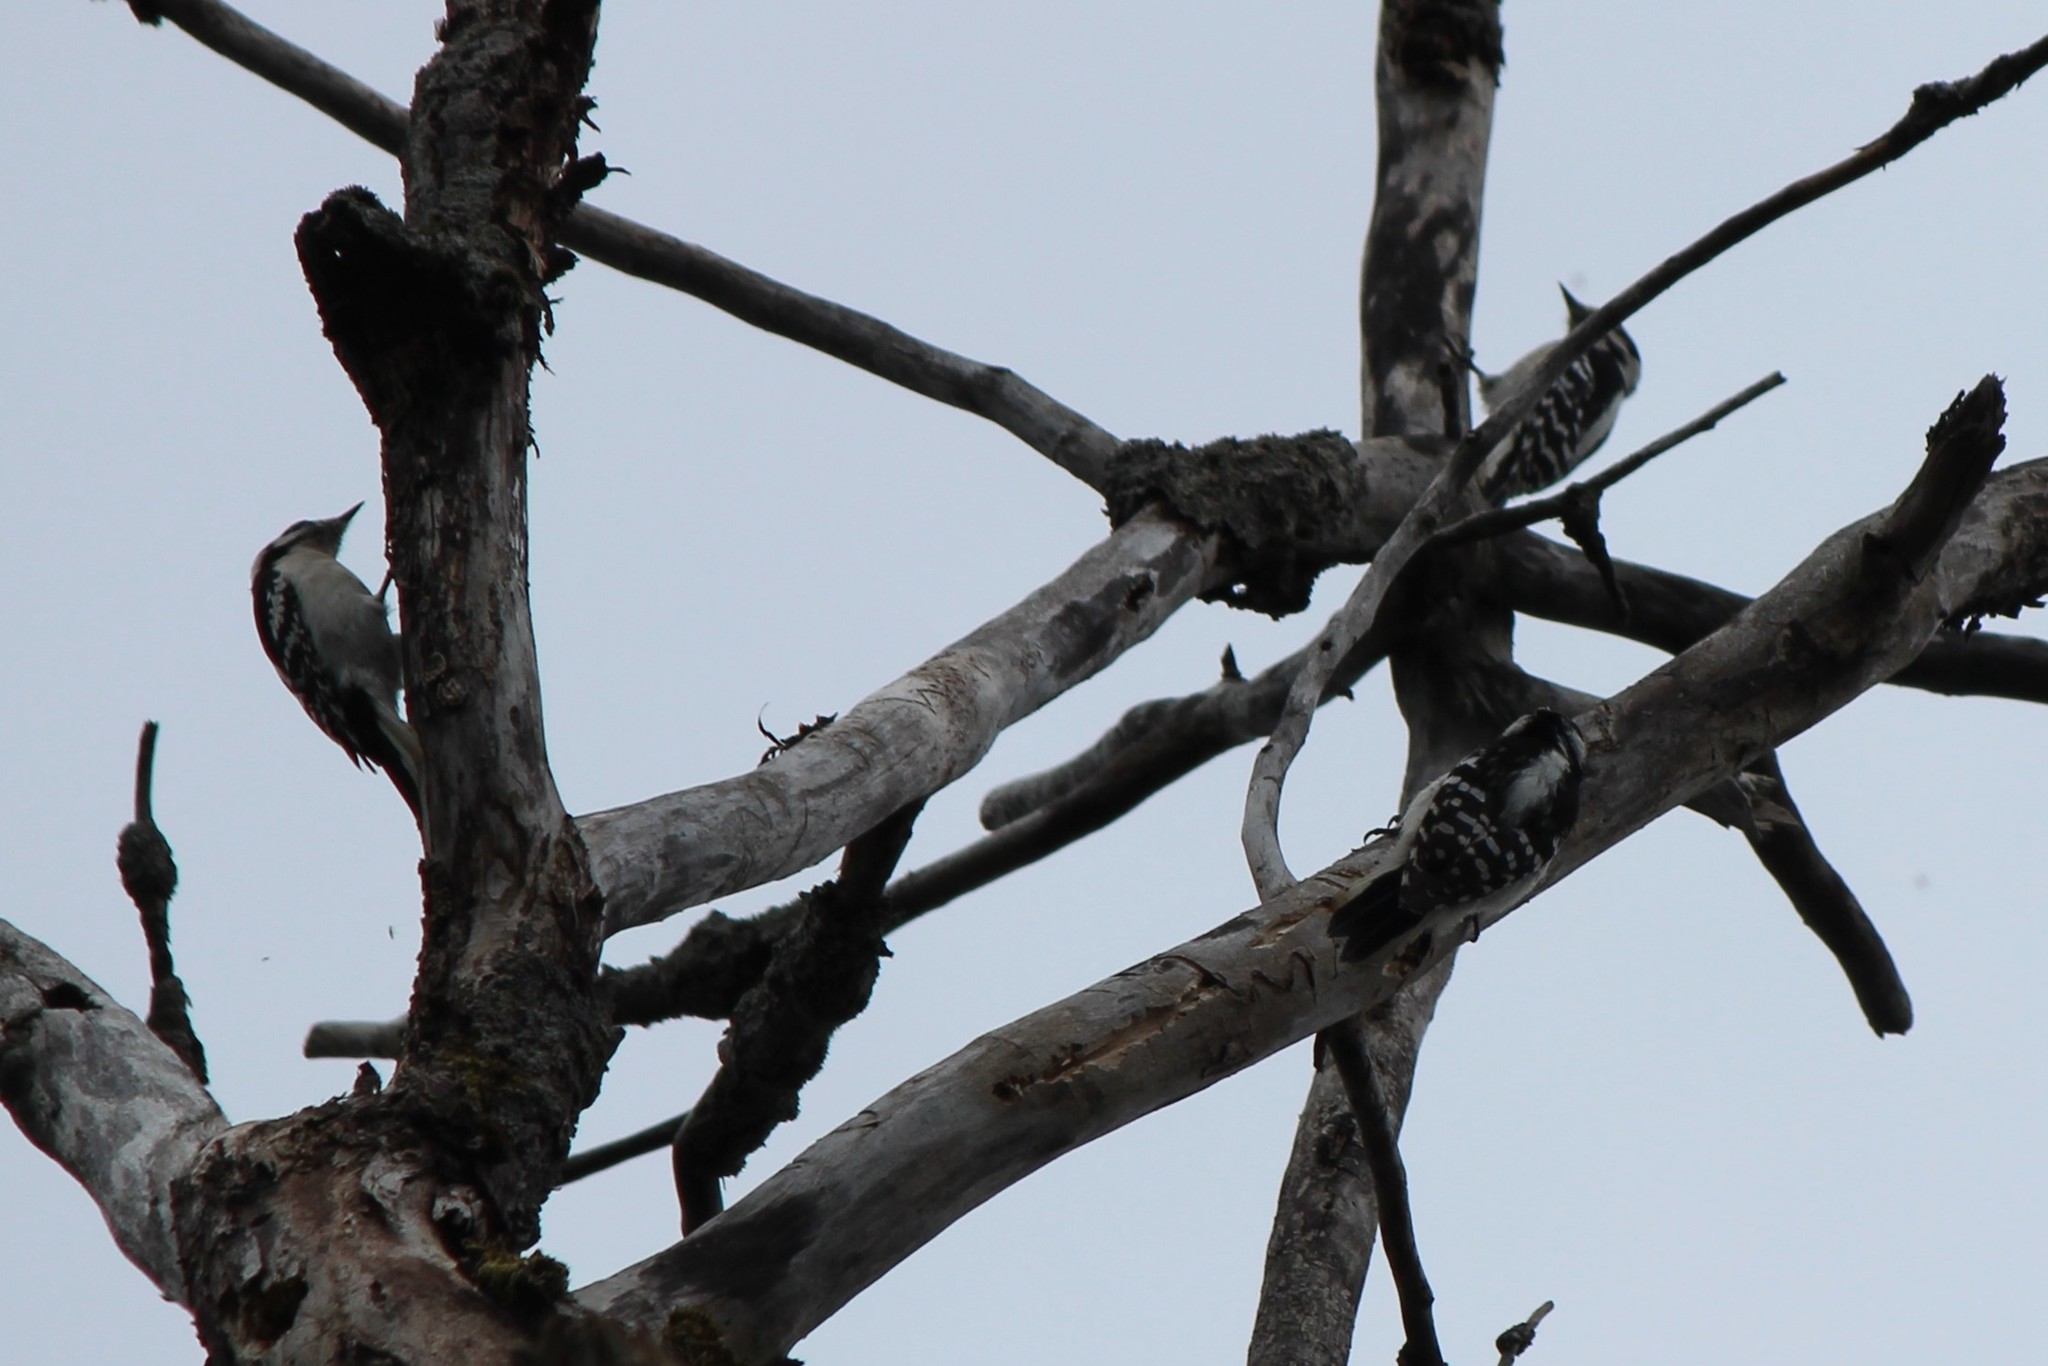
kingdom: Animalia
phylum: Chordata
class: Aves
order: Piciformes
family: Picidae
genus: Dryobates
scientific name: Dryobates pubescens
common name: Downy woodpecker
